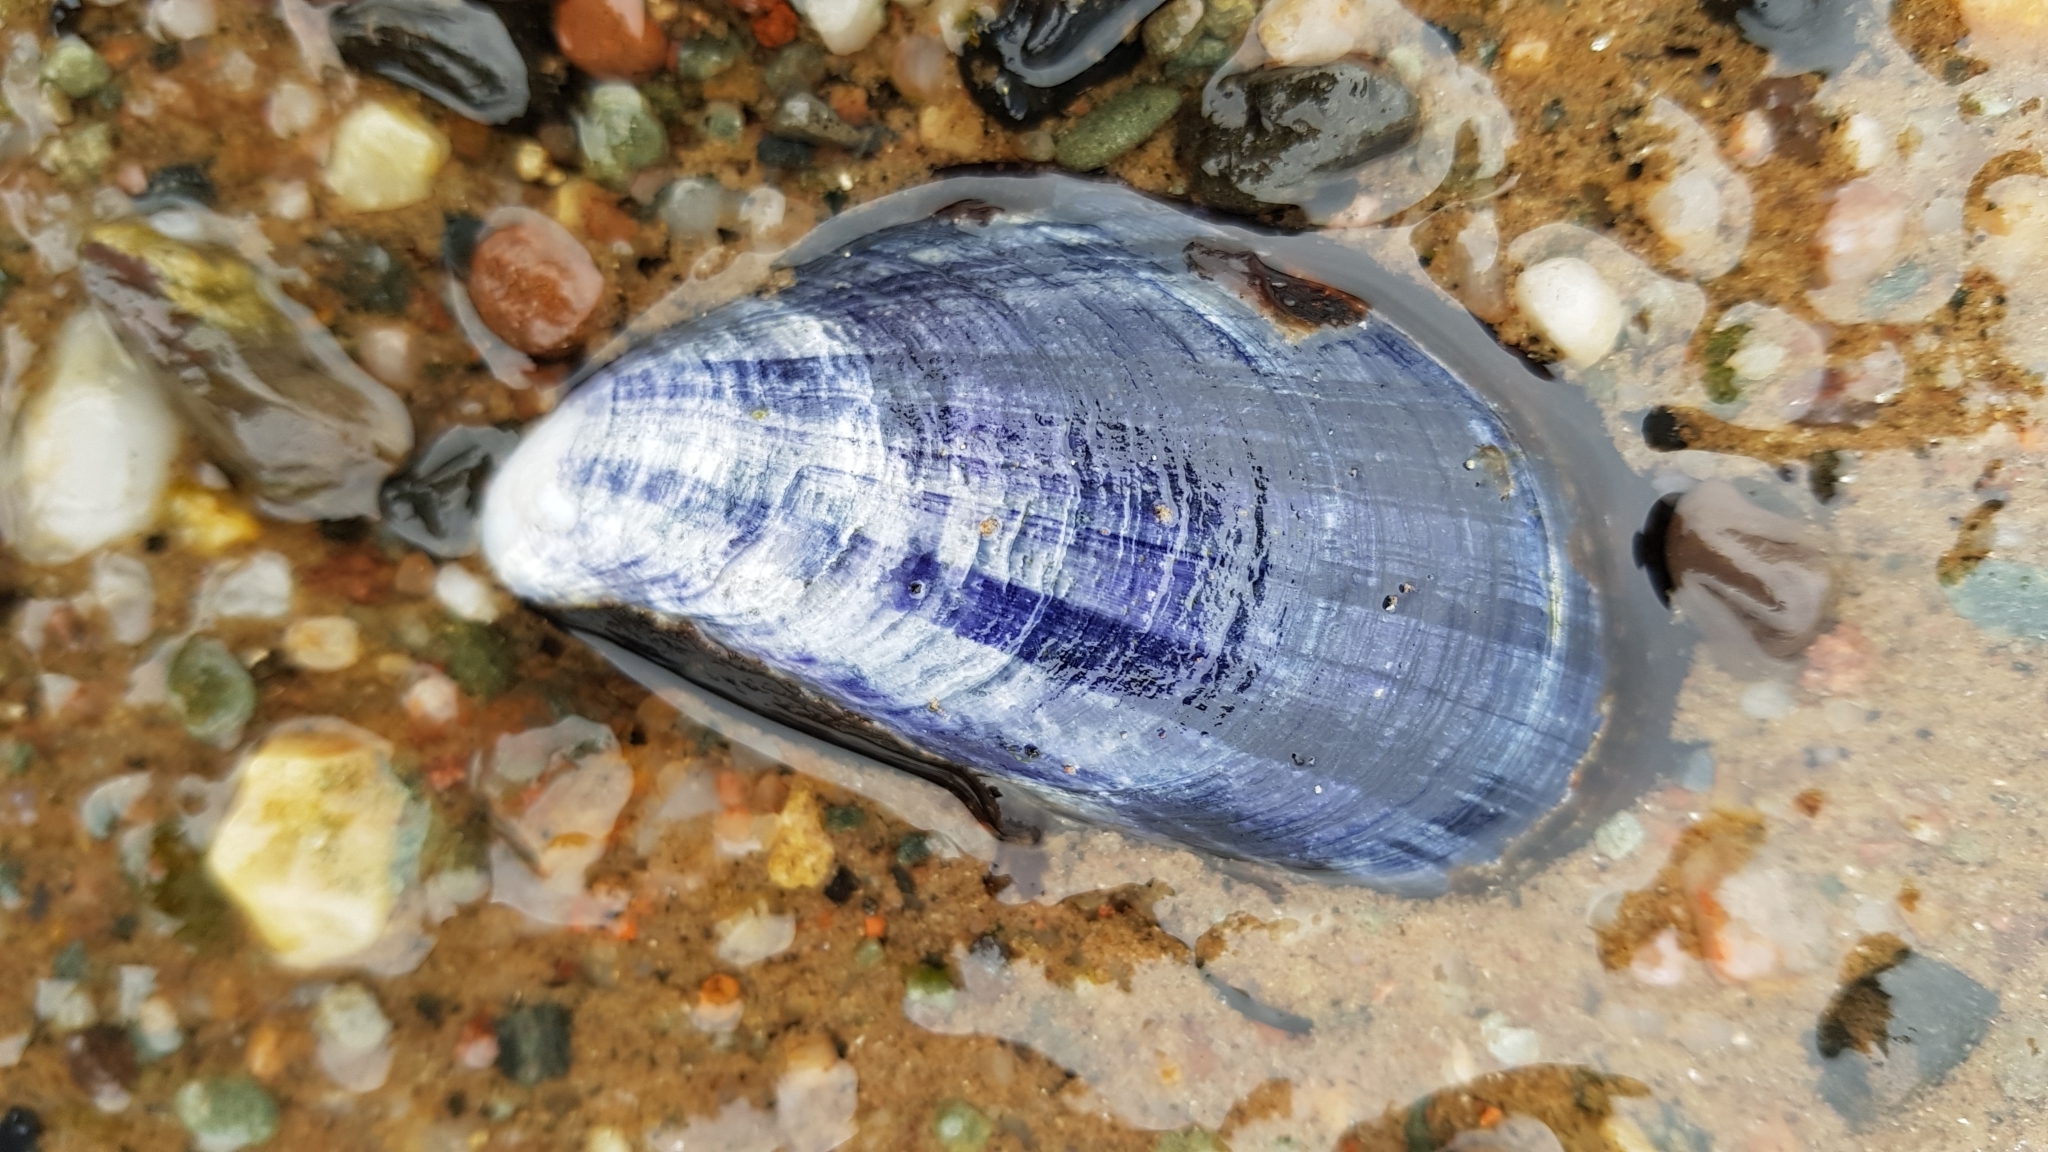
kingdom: Animalia
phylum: Mollusca
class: Bivalvia
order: Mytilida
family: Mytilidae
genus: Mytilus
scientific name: Mytilus edulis
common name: Blue mussel
